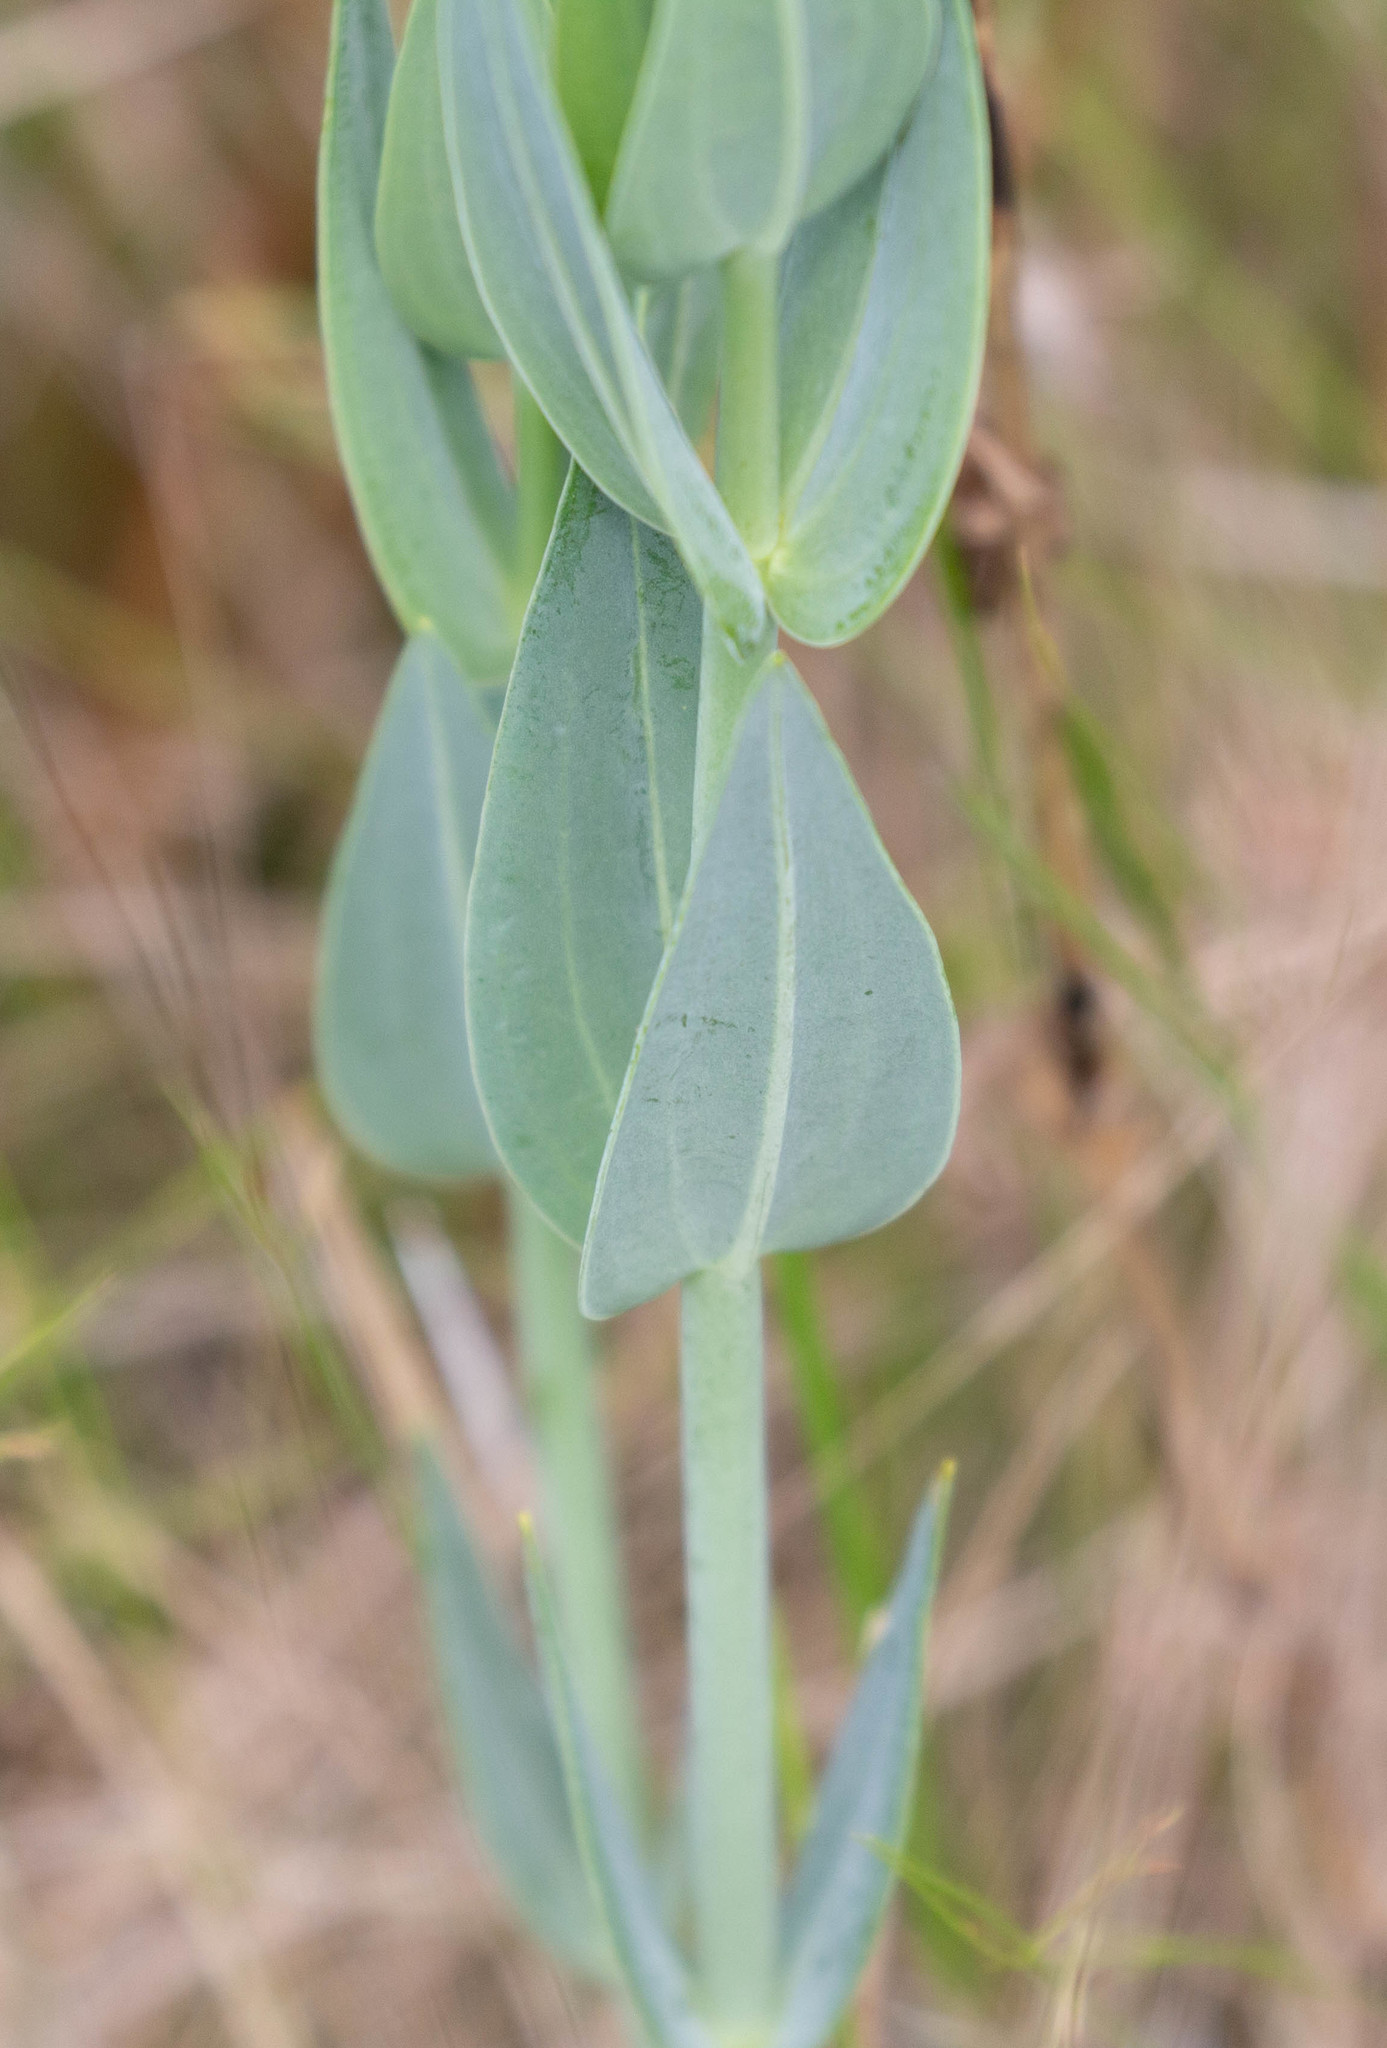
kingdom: Plantae
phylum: Tracheophyta
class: Magnoliopsida
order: Gentianales
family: Gentianaceae
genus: Eustoma
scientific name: Eustoma exaltatum
